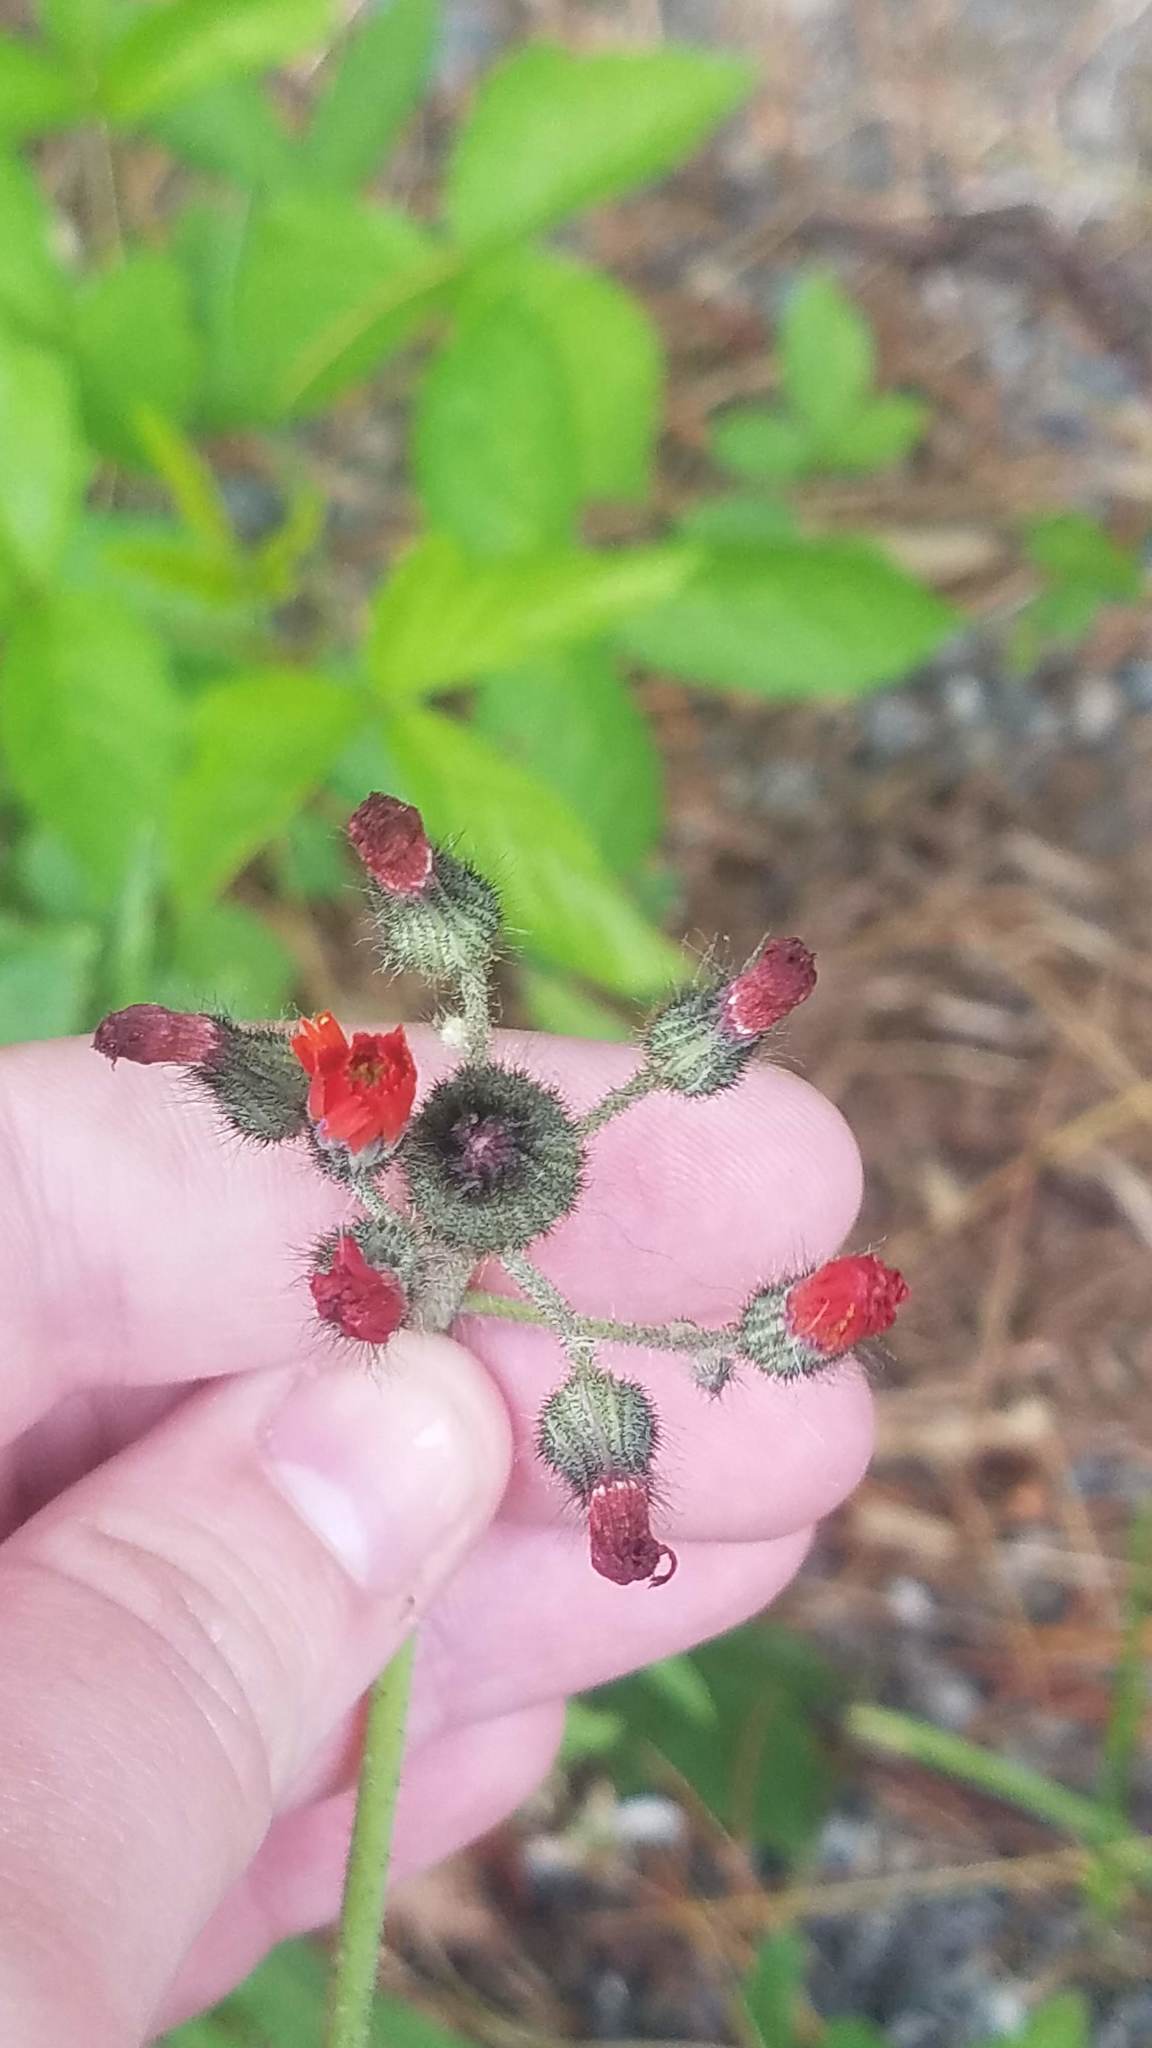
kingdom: Plantae
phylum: Tracheophyta
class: Magnoliopsida
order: Asterales
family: Asteraceae
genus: Pilosella
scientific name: Pilosella aurantiaca
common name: Fox-and-cubs
